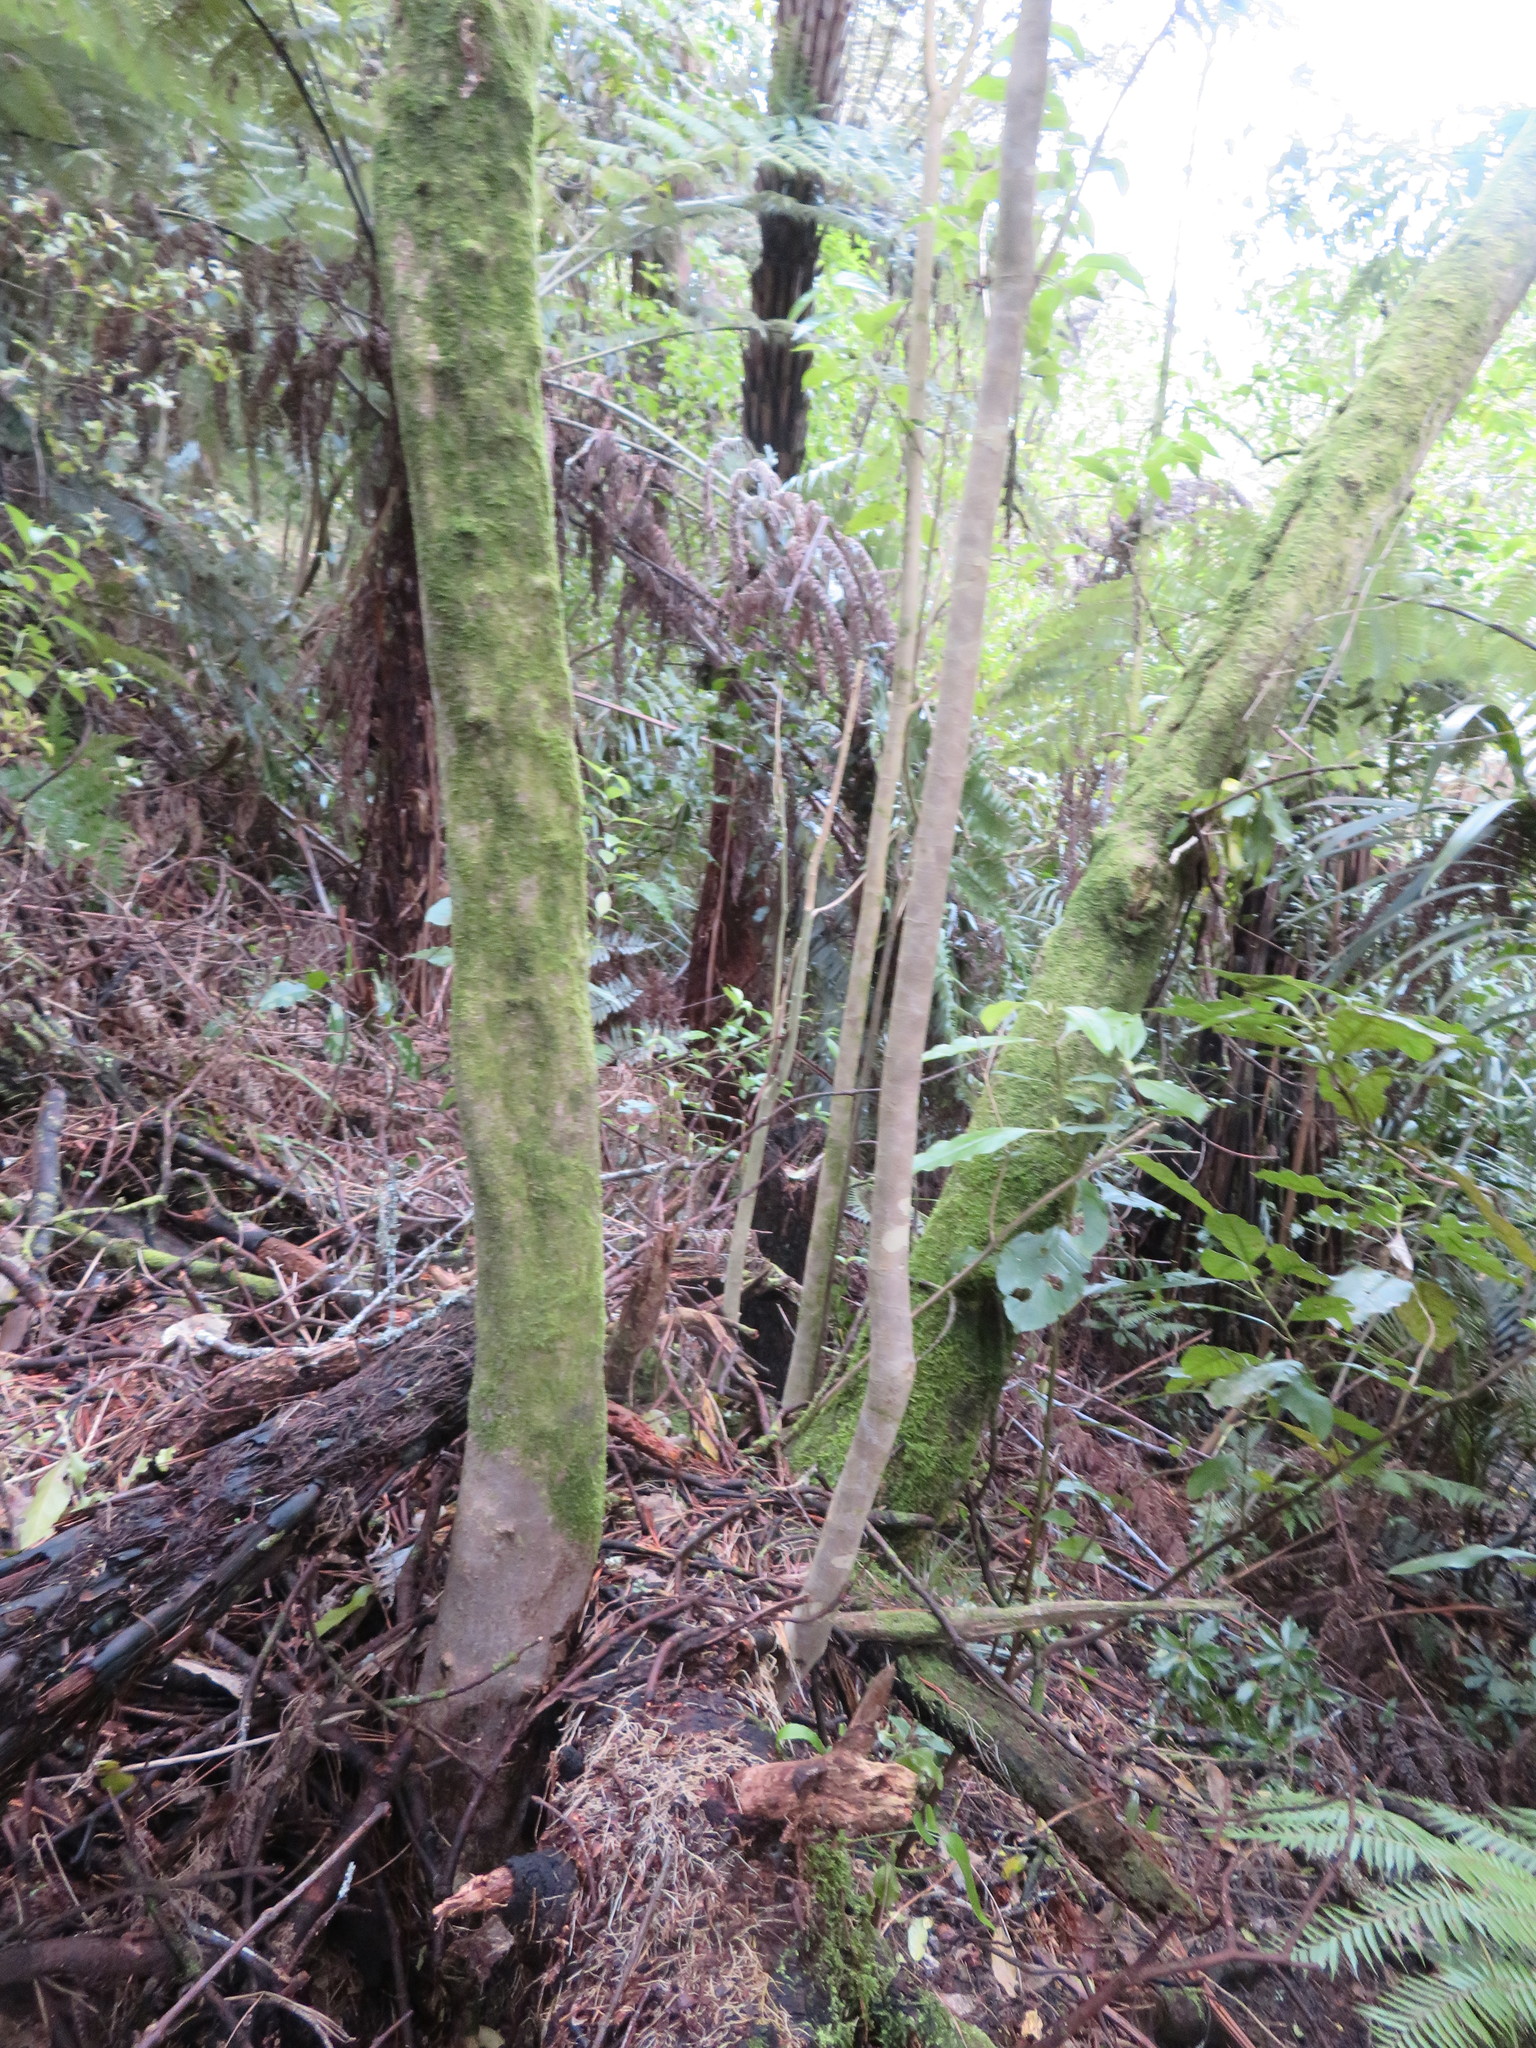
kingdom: Plantae
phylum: Tracheophyta
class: Pinopsida
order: Pinales
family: Phyllocladaceae
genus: Phyllocladus
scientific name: Phyllocladus trichomanoides
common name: Celery pine
